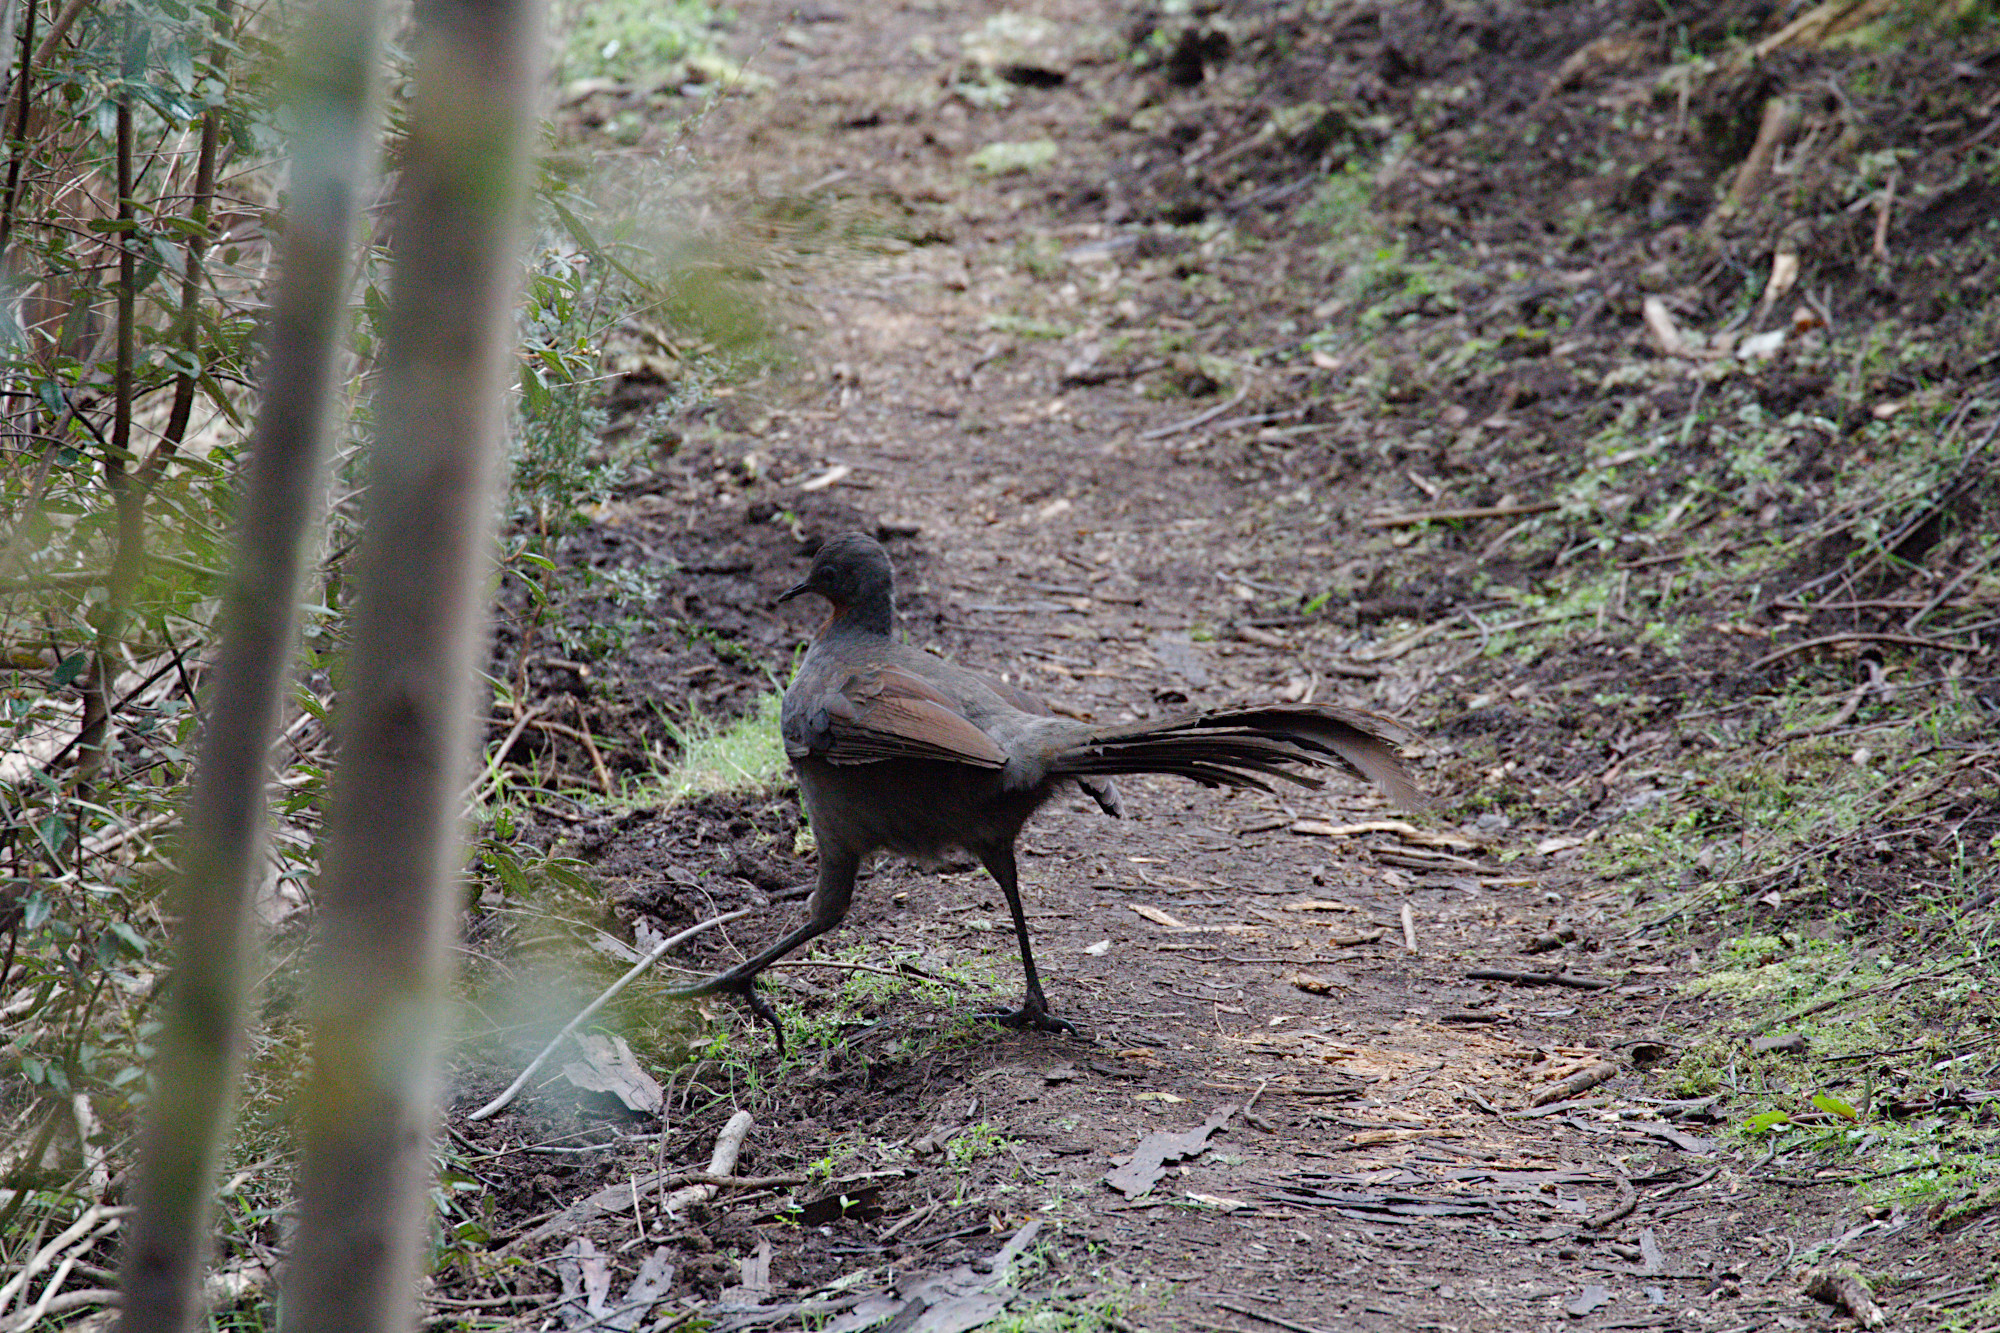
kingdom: Animalia
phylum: Chordata
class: Aves
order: Passeriformes
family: Menuridae
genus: Menura
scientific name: Menura novaehollandiae
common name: Superb lyrebird
